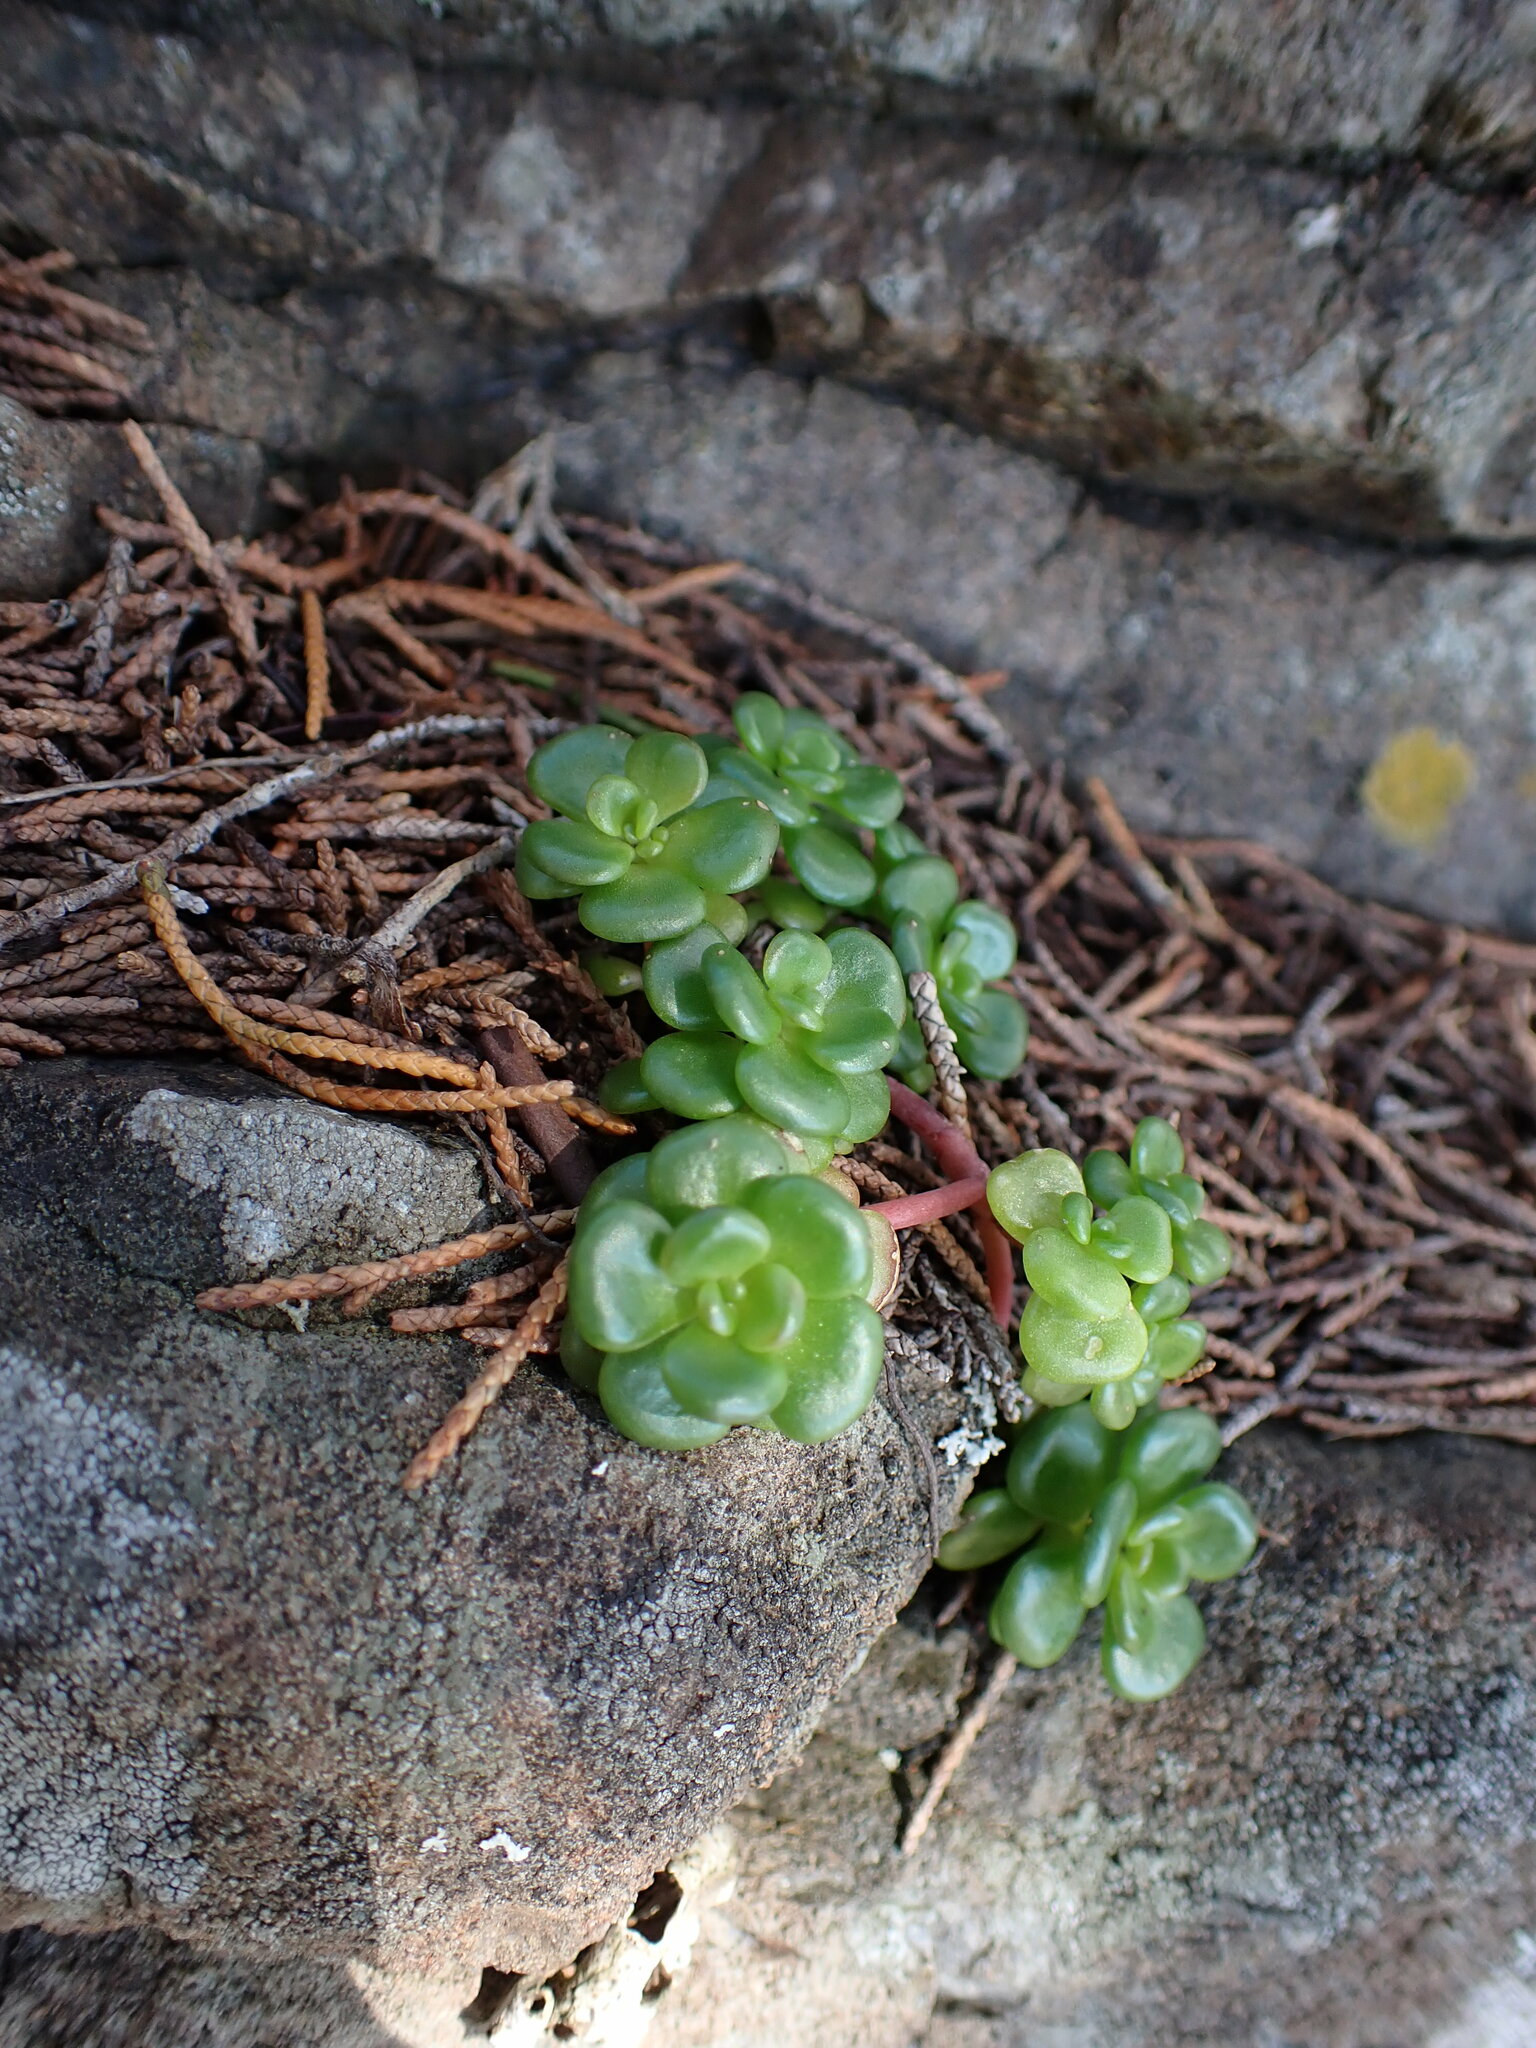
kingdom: Plantae
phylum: Tracheophyta
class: Magnoliopsida
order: Saxifragales
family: Crassulaceae
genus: Sedum
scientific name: Sedum oreganum
